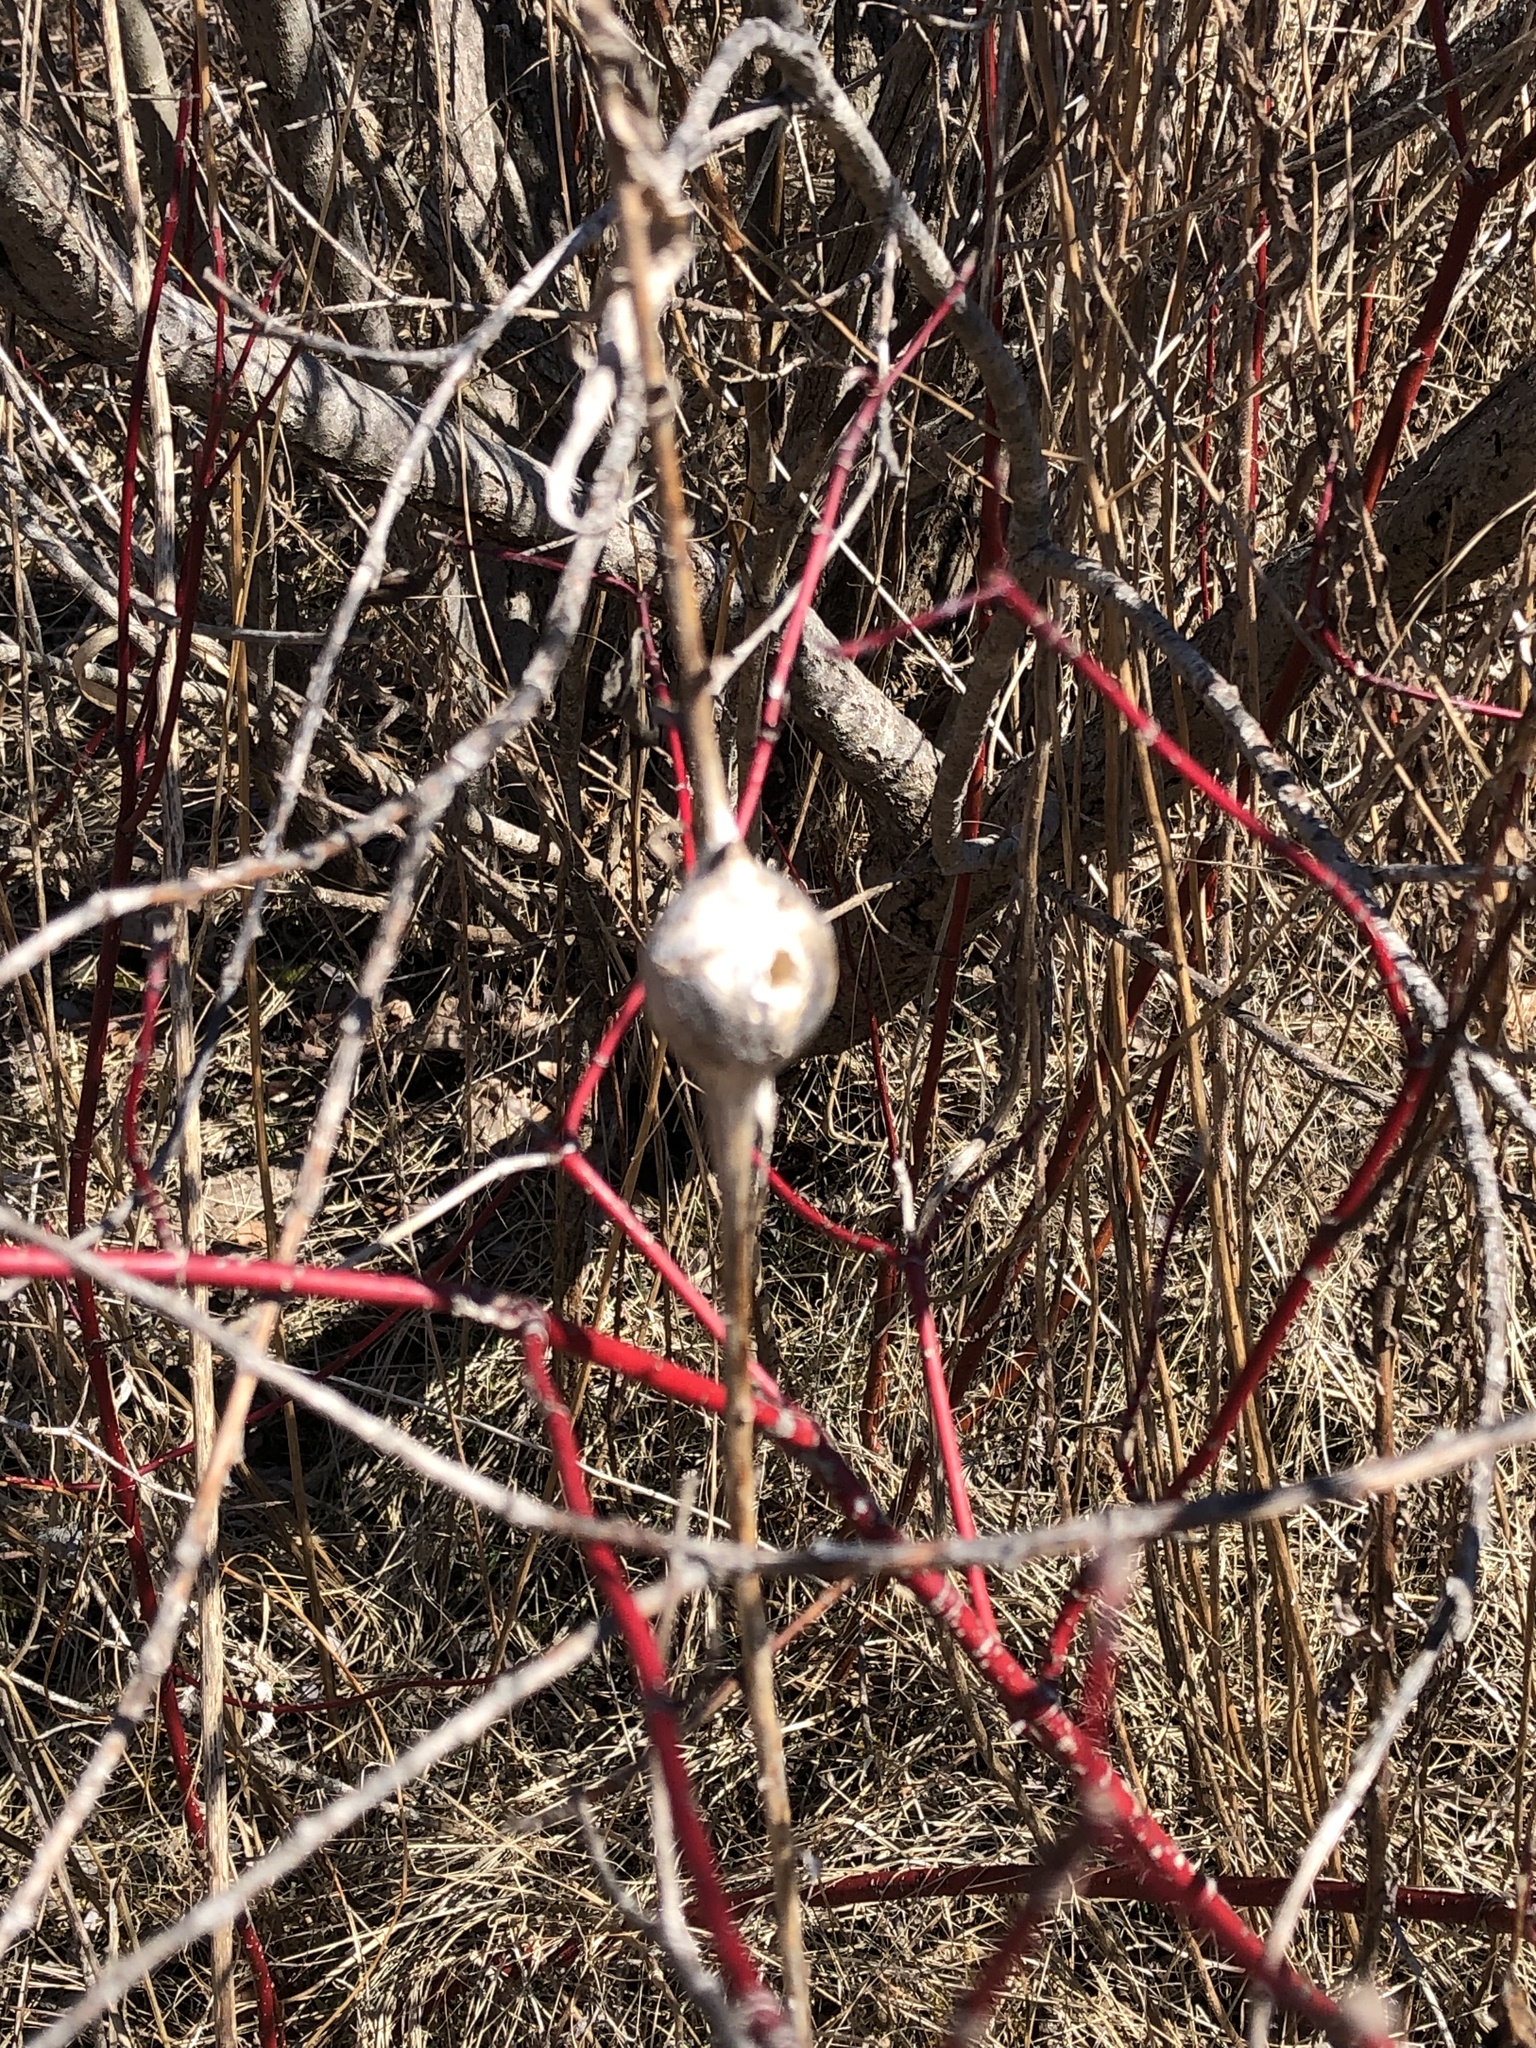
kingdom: Animalia
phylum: Arthropoda
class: Insecta
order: Diptera
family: Tephritidae
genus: Eurosta
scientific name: Eurosta solidaginis
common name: Goldenrod gall fly
